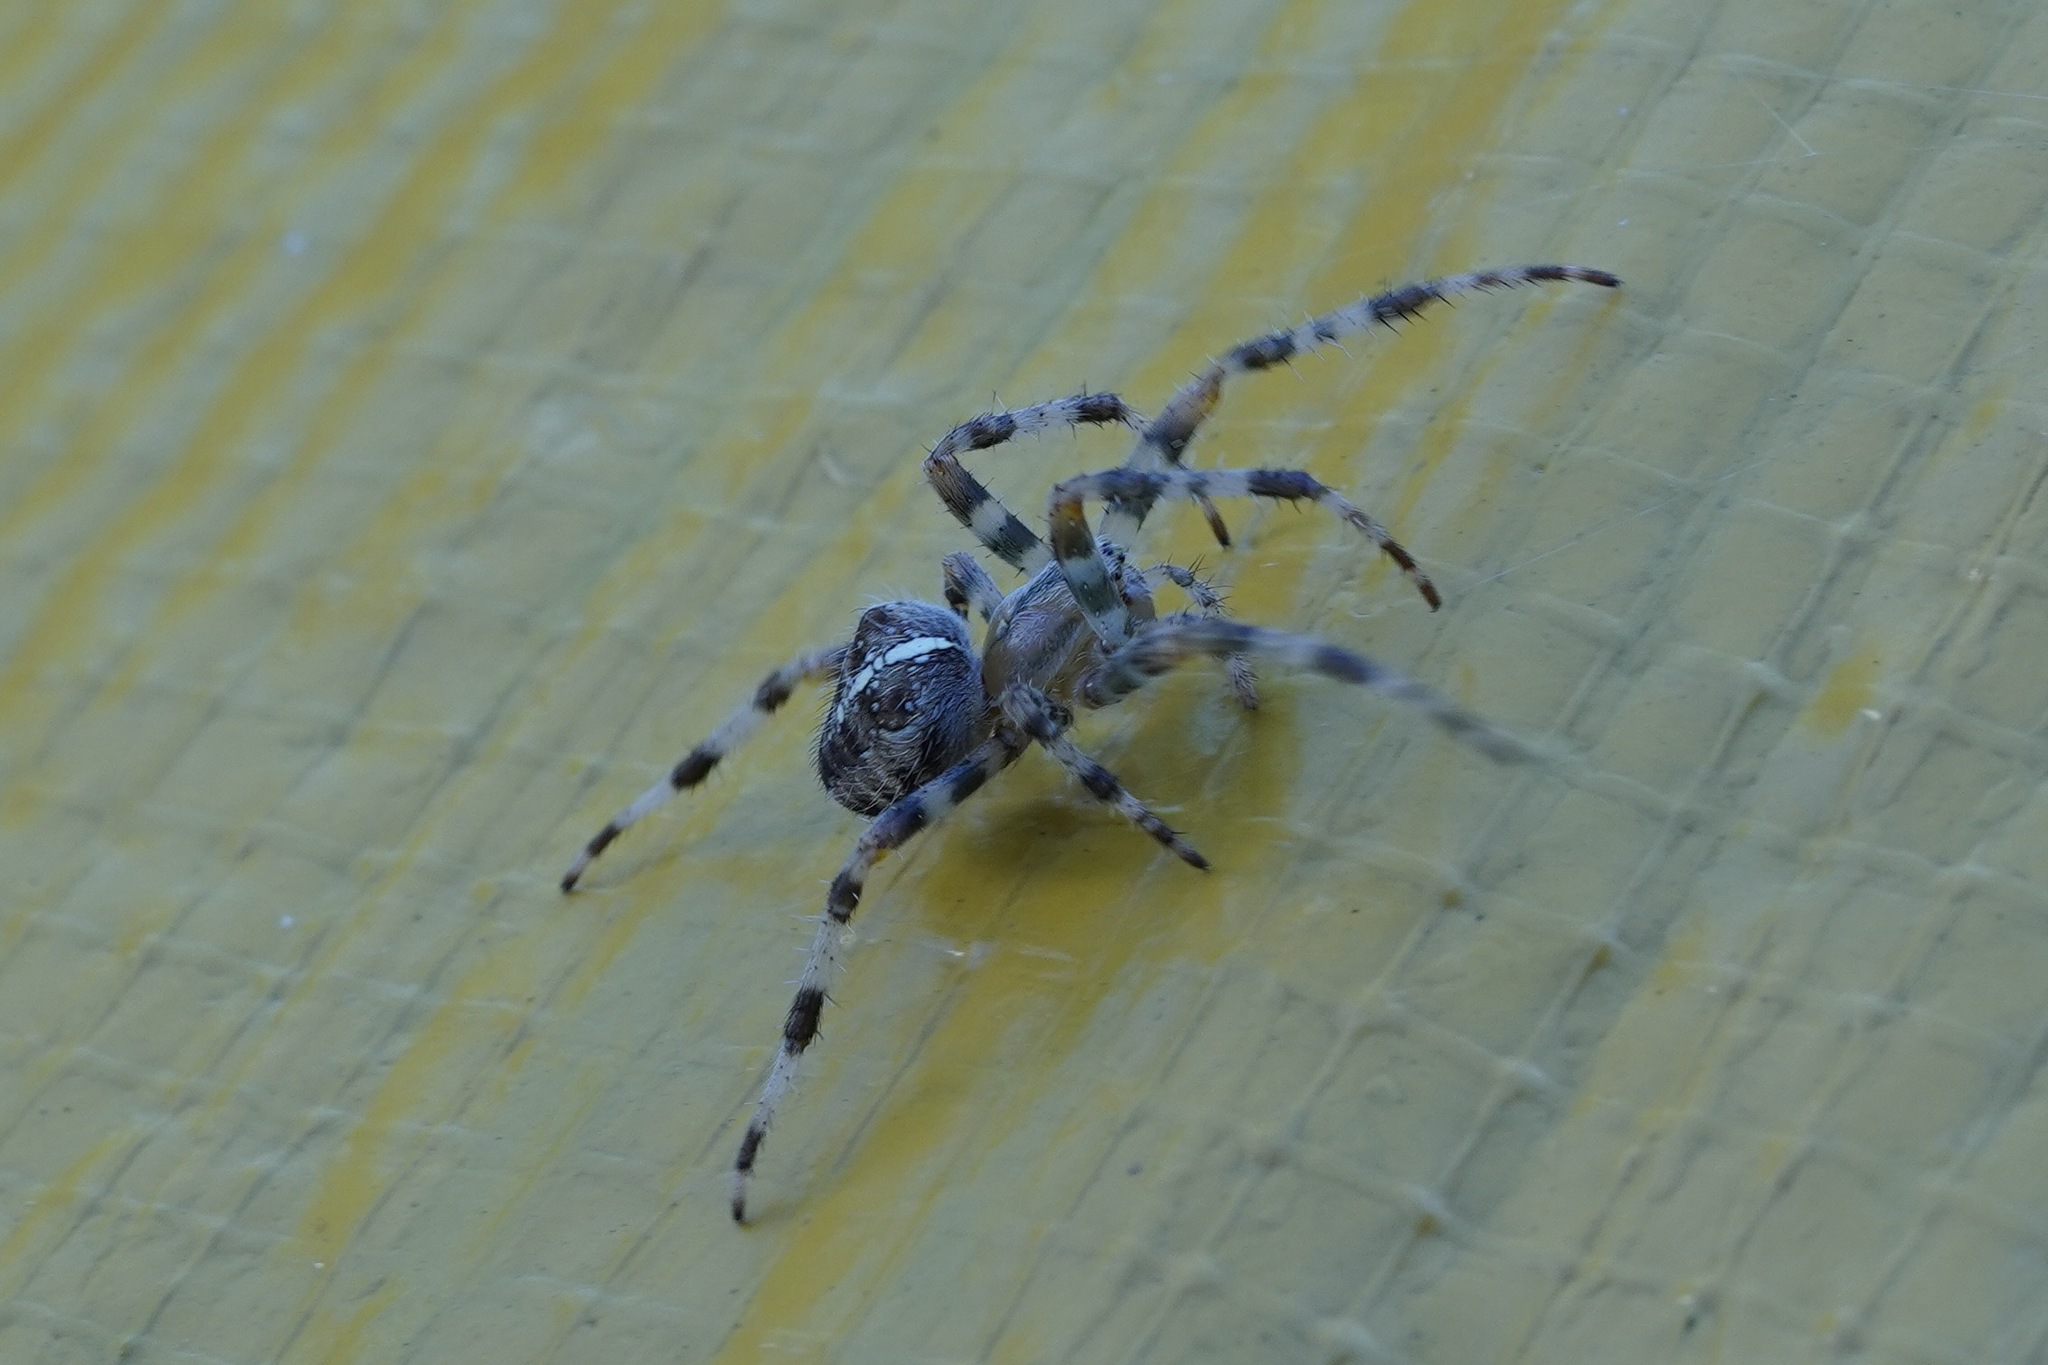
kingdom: Animalia
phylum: Arthropoda
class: Arachnida
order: Araneae
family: Araneidae
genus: Araneus
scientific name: Araneus diadematus
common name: Cross orbweaver
